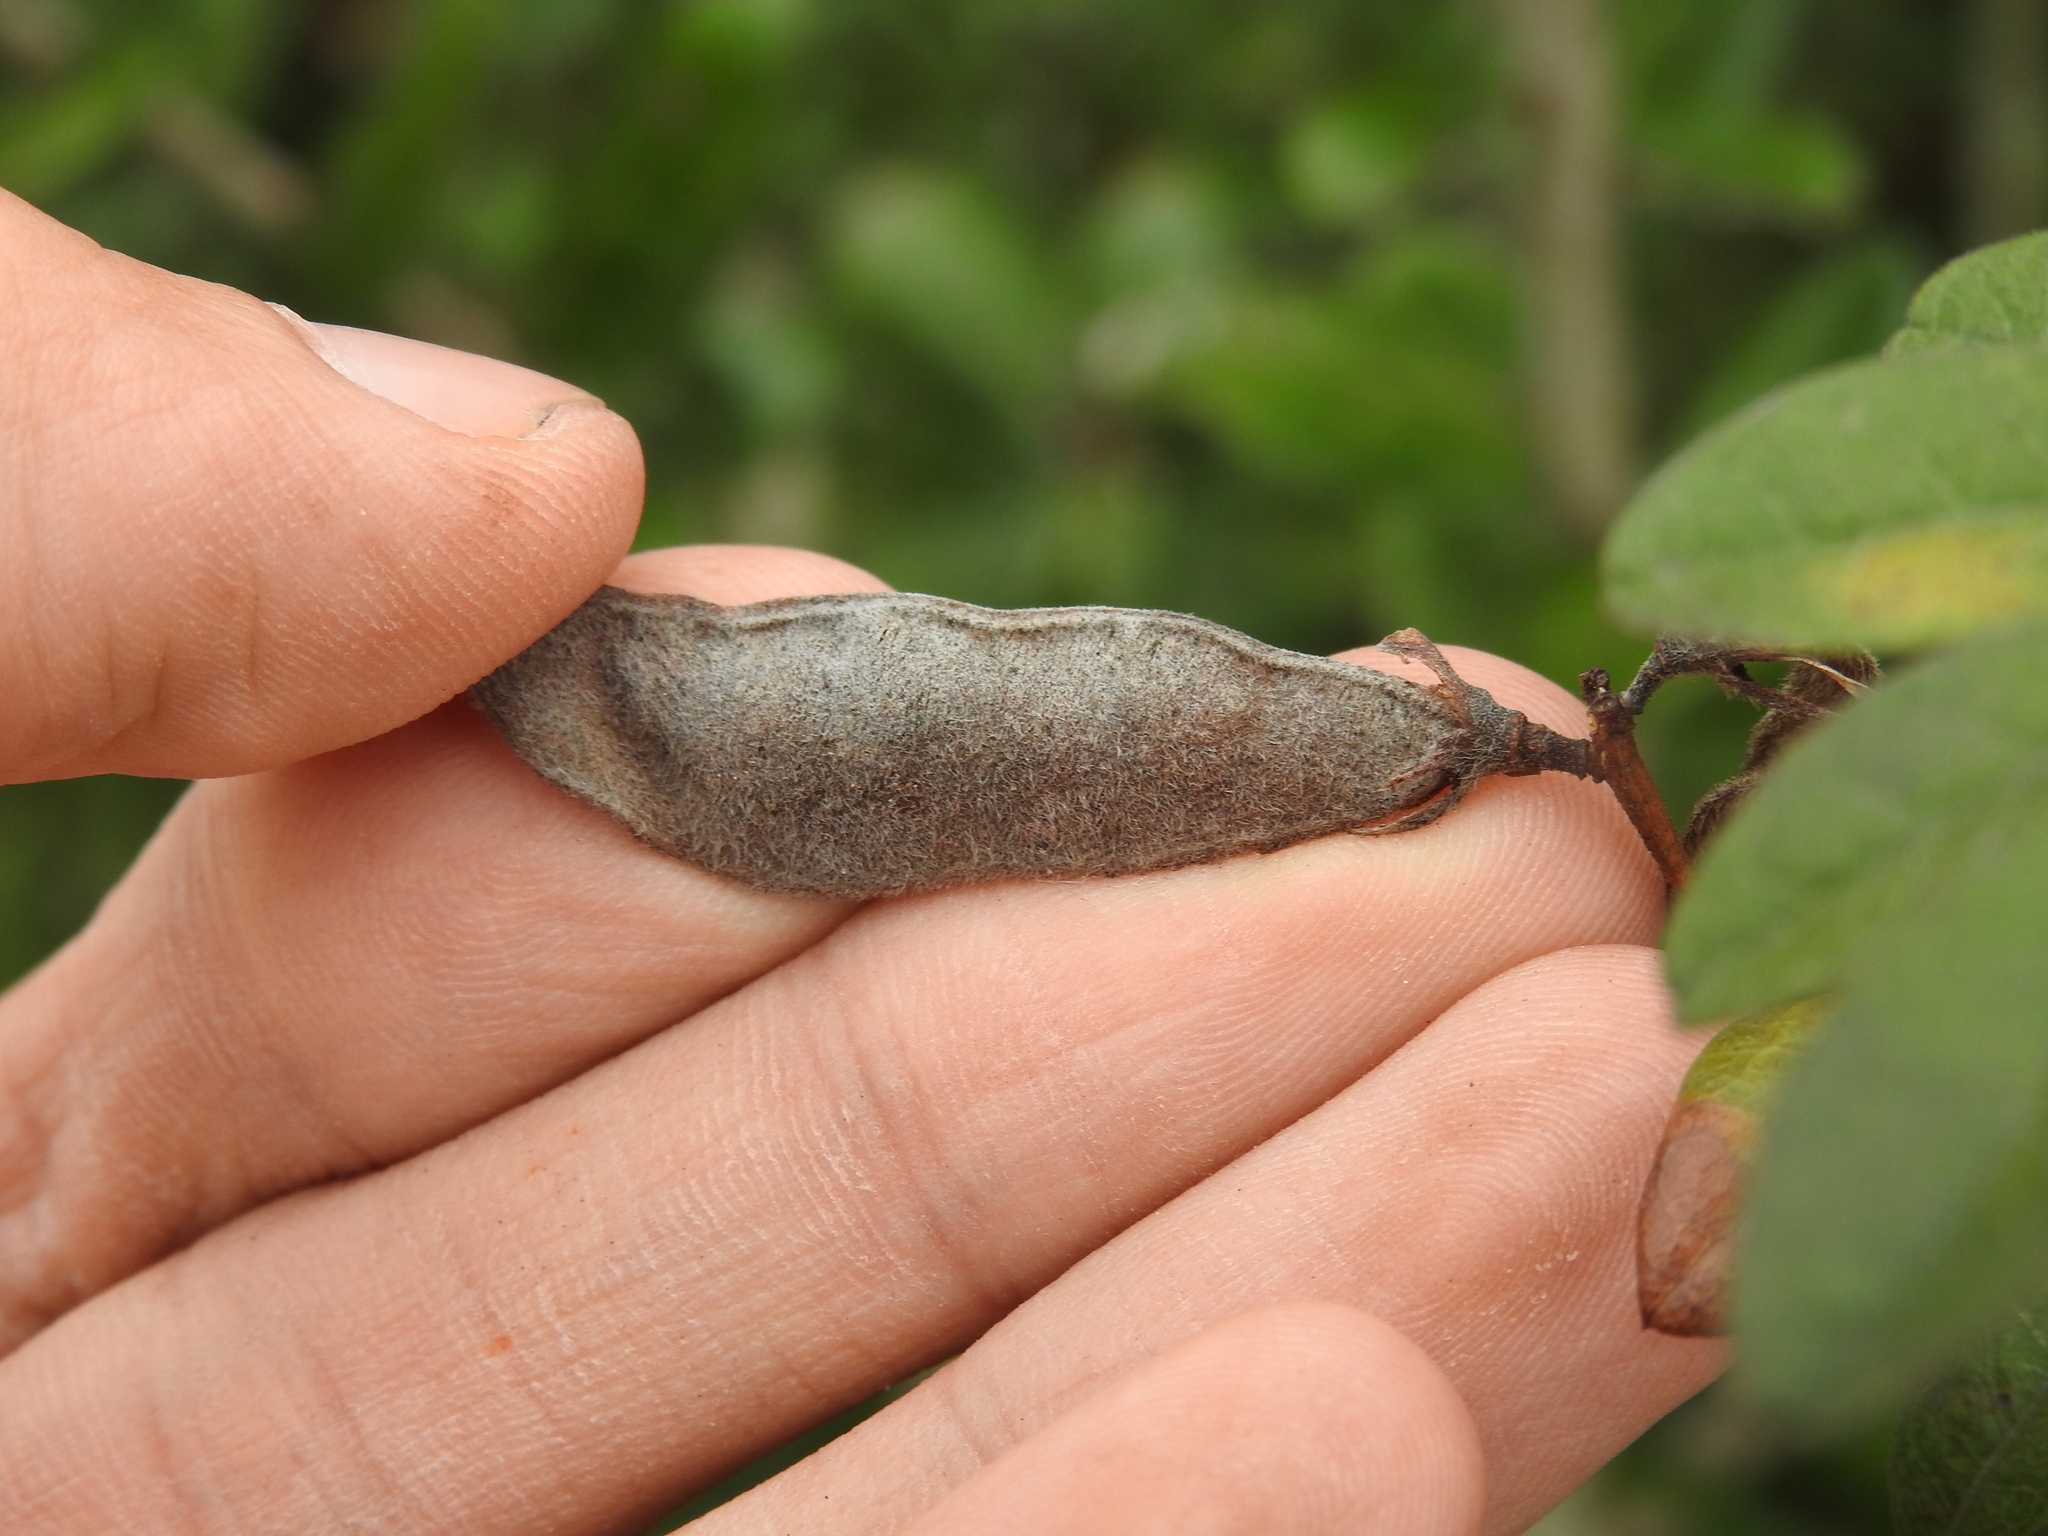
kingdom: Plantae
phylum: Tracheophyta
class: Magnoliopsida
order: Fabales
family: Fabaceae
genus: Galactia
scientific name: Galactia elliottii
